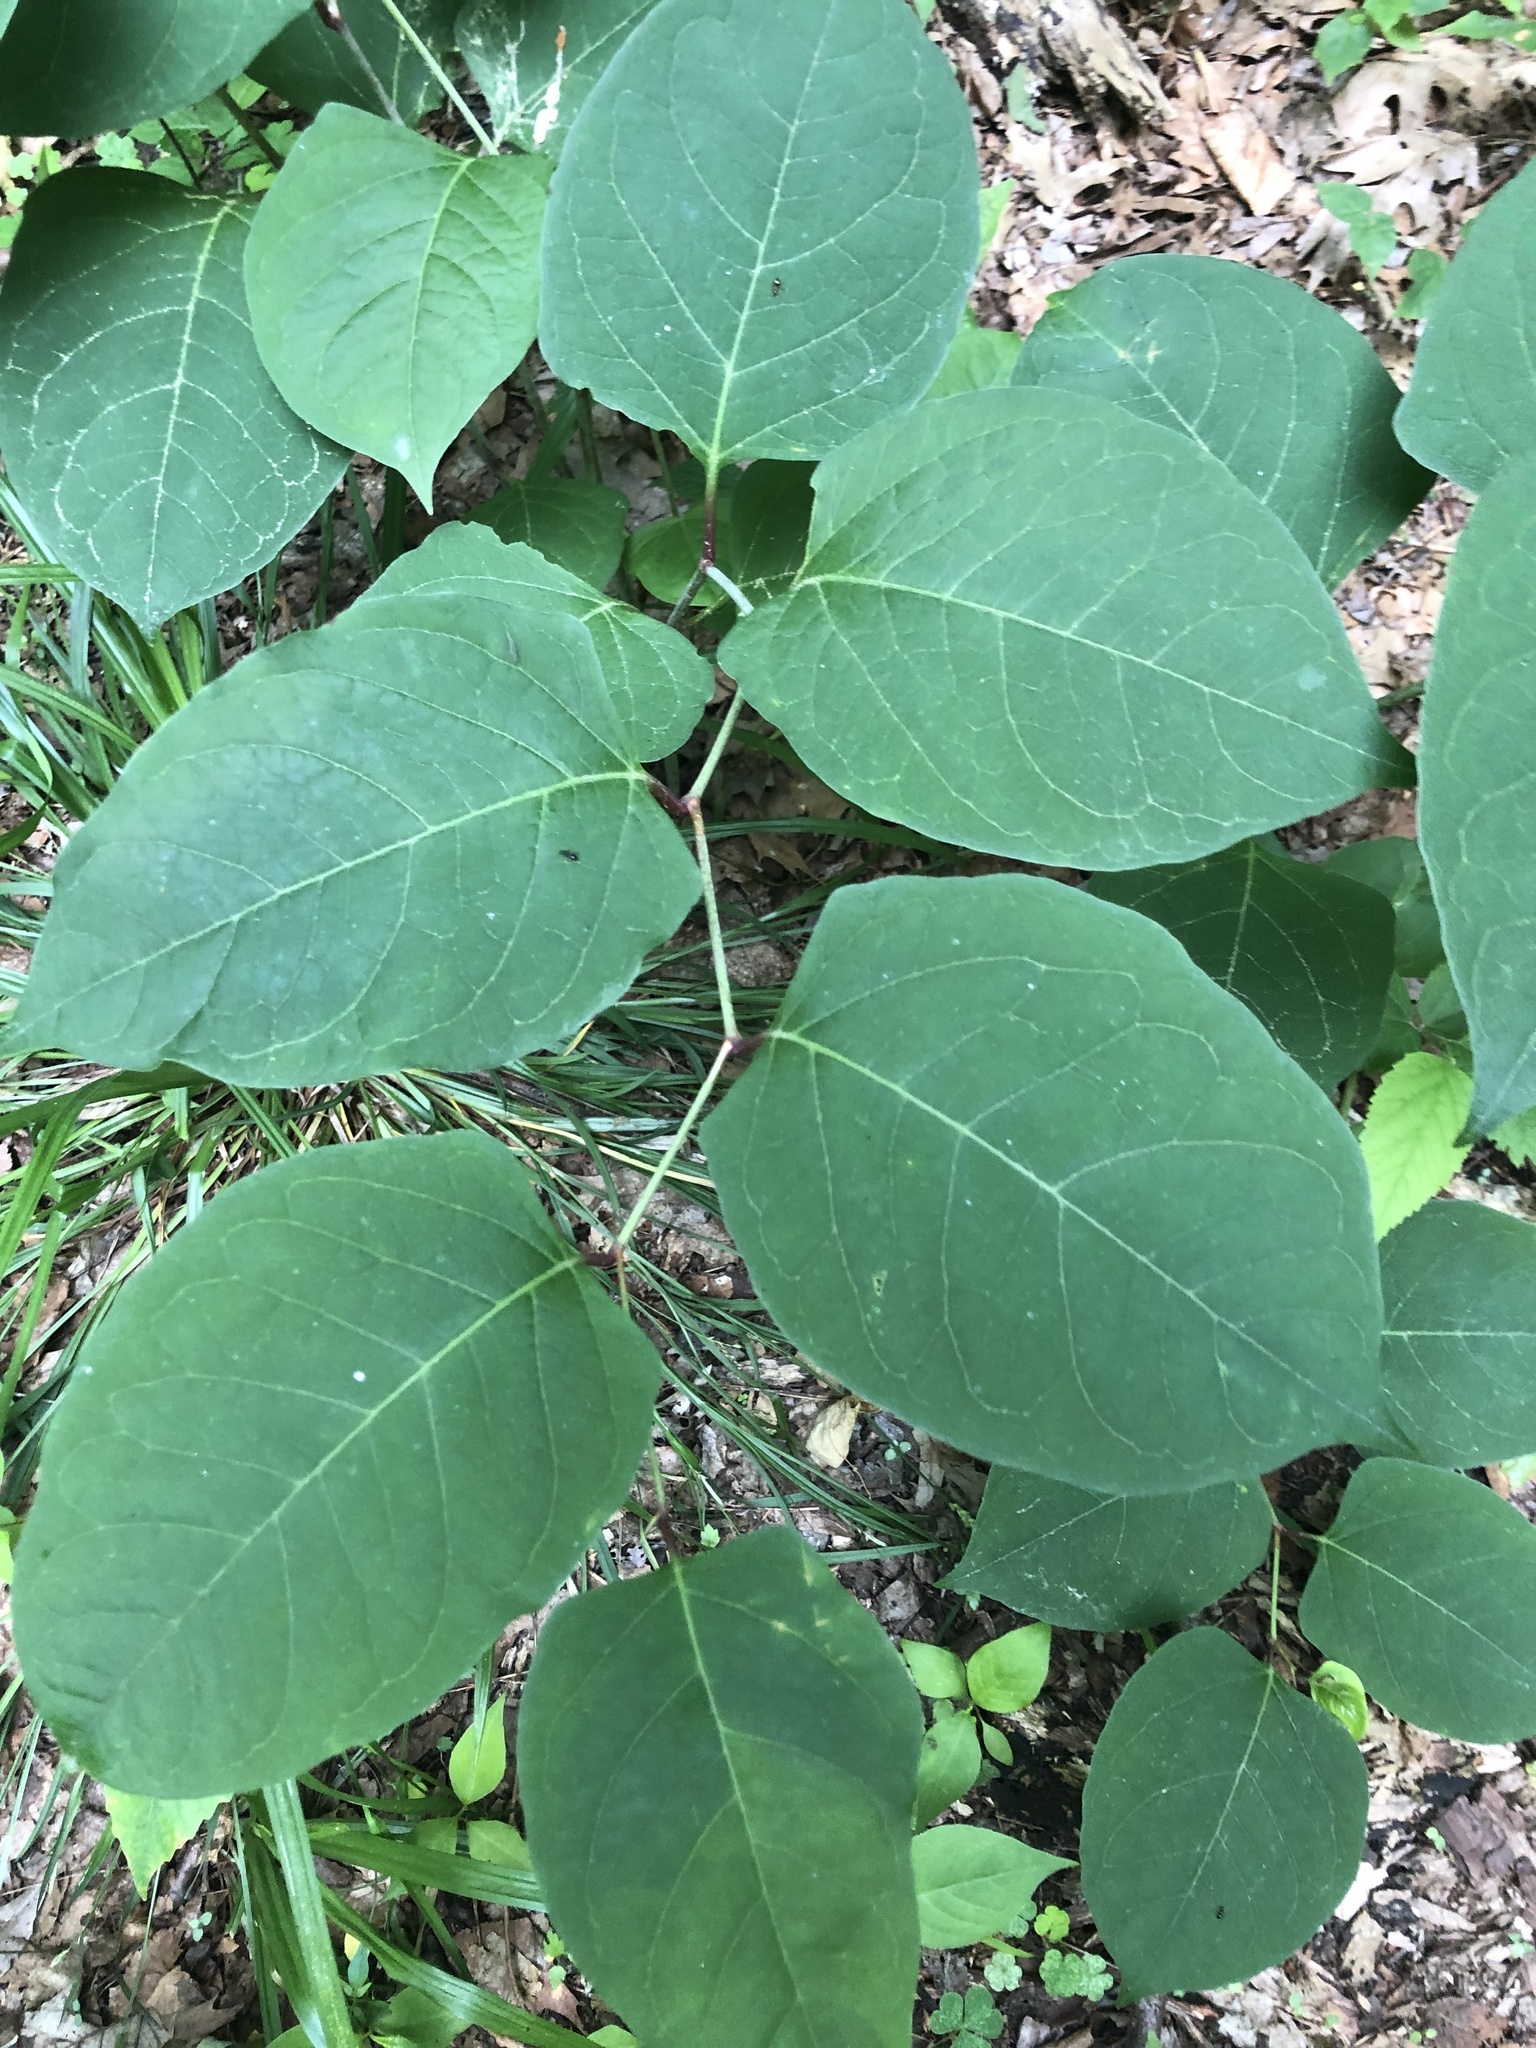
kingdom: Plantae
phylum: Tracheophyta
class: Magnoliopsida
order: Caryophyllales
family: Polygonaceae
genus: Reynoutria
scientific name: Reynoutria japonica
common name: Japanese knotweed
